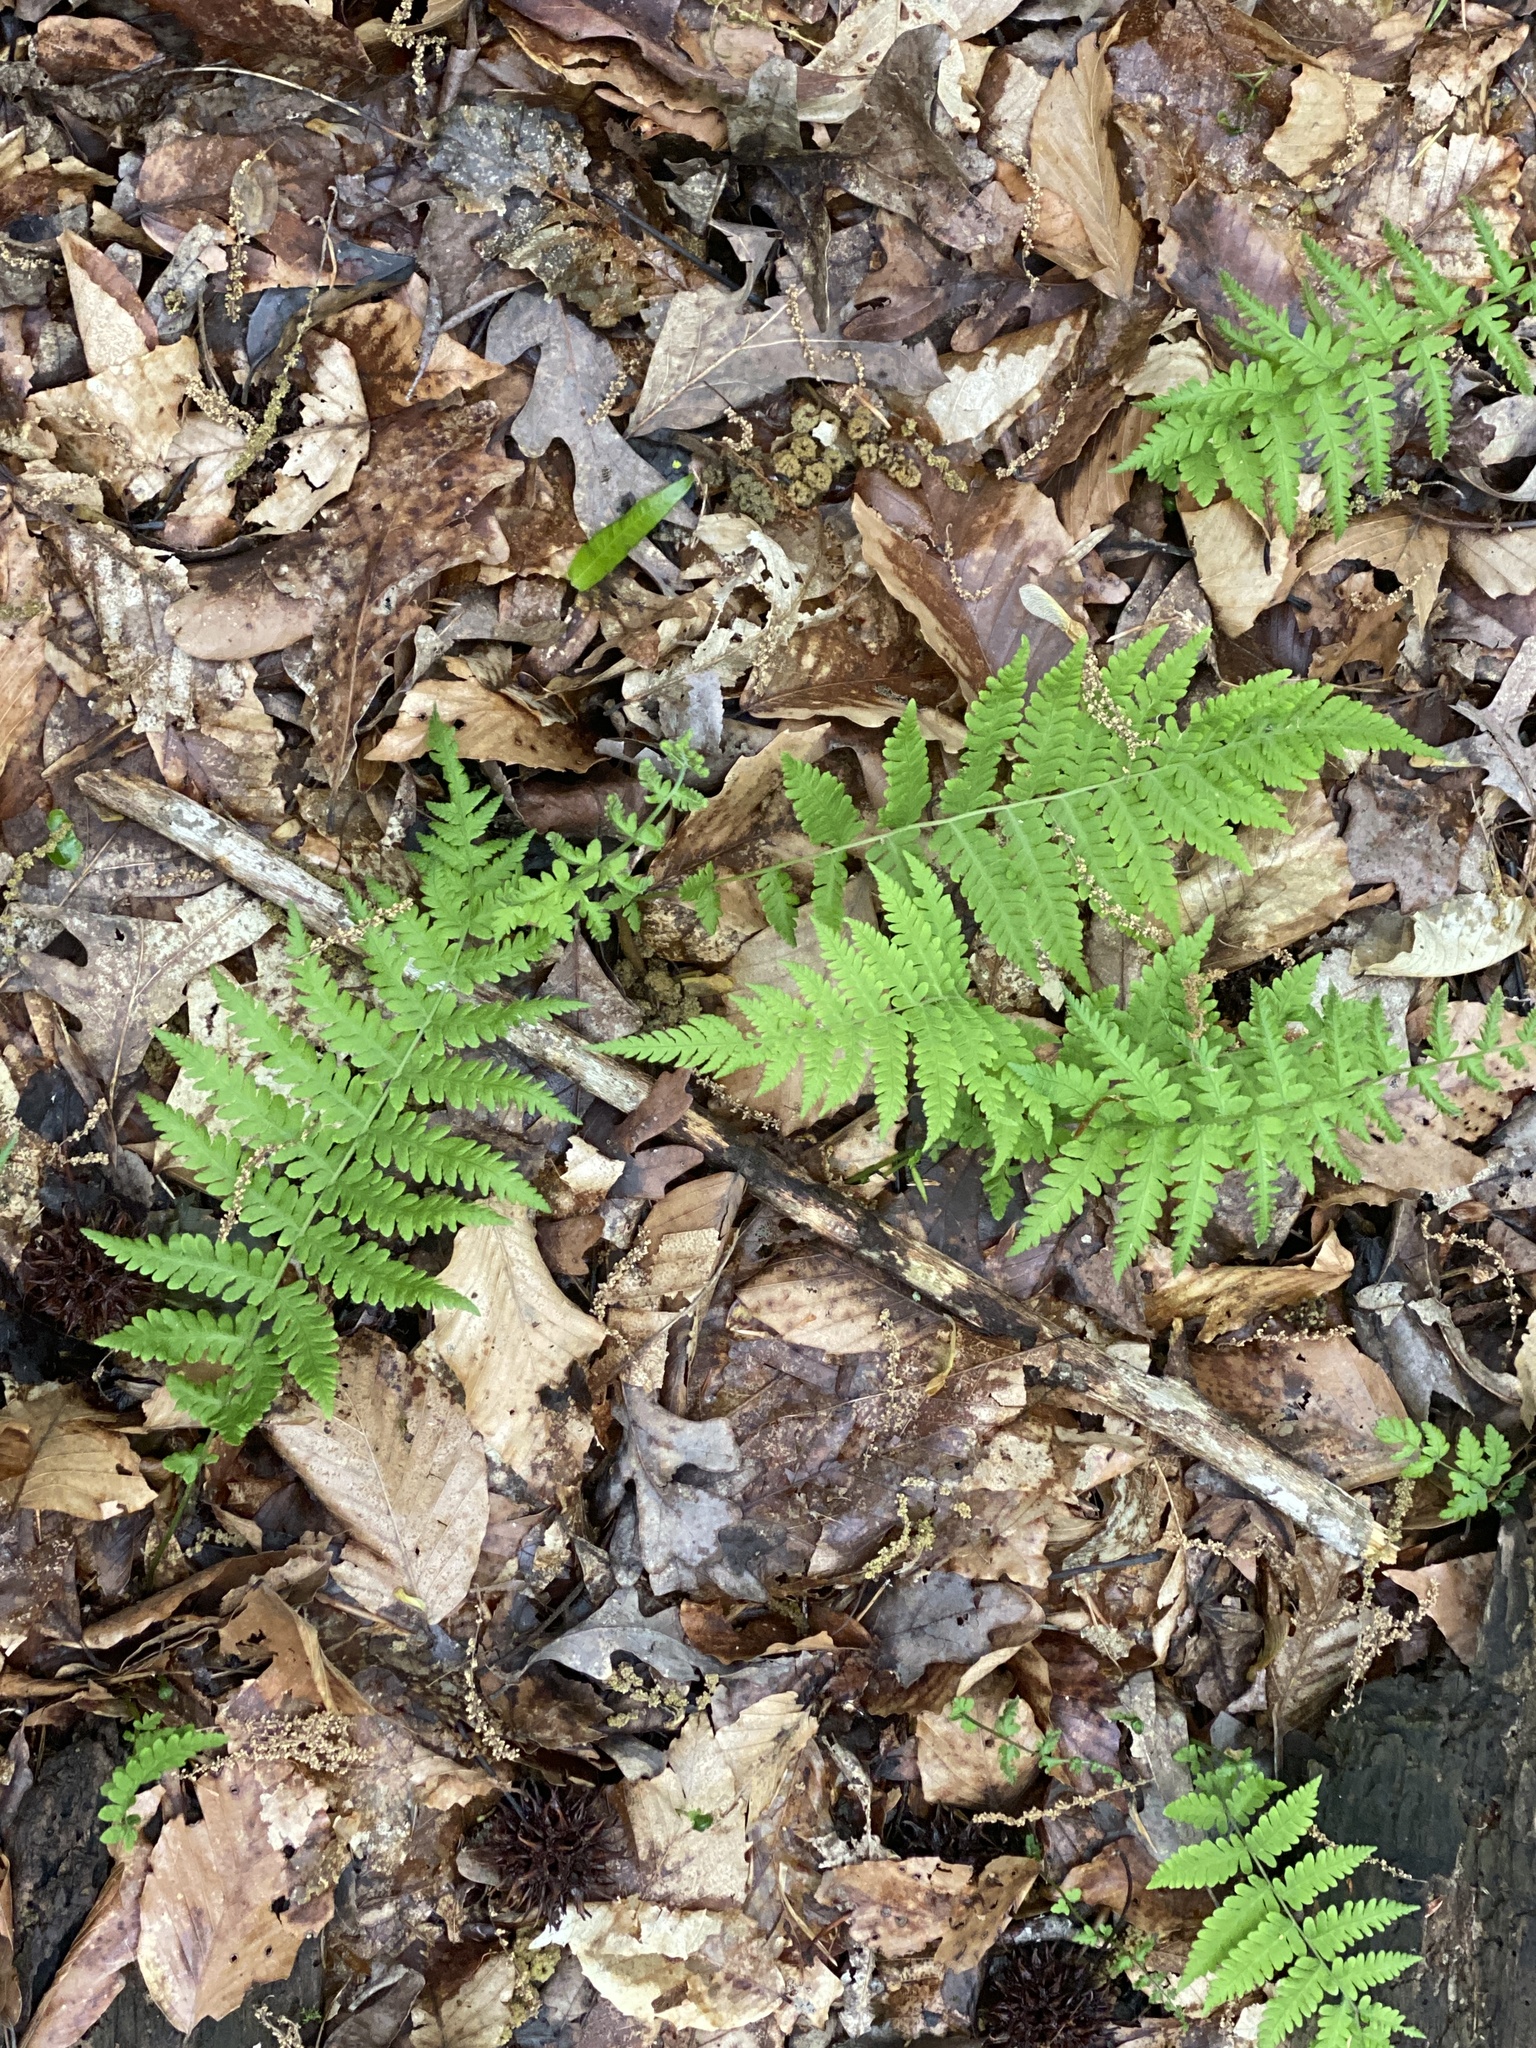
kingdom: Plantae
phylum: Tracheophyta
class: Polypodiopsida
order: Polypodiales
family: Thelypteridaceae
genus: Amauropelta
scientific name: Amauropelta noveboracensis
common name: New york fern
